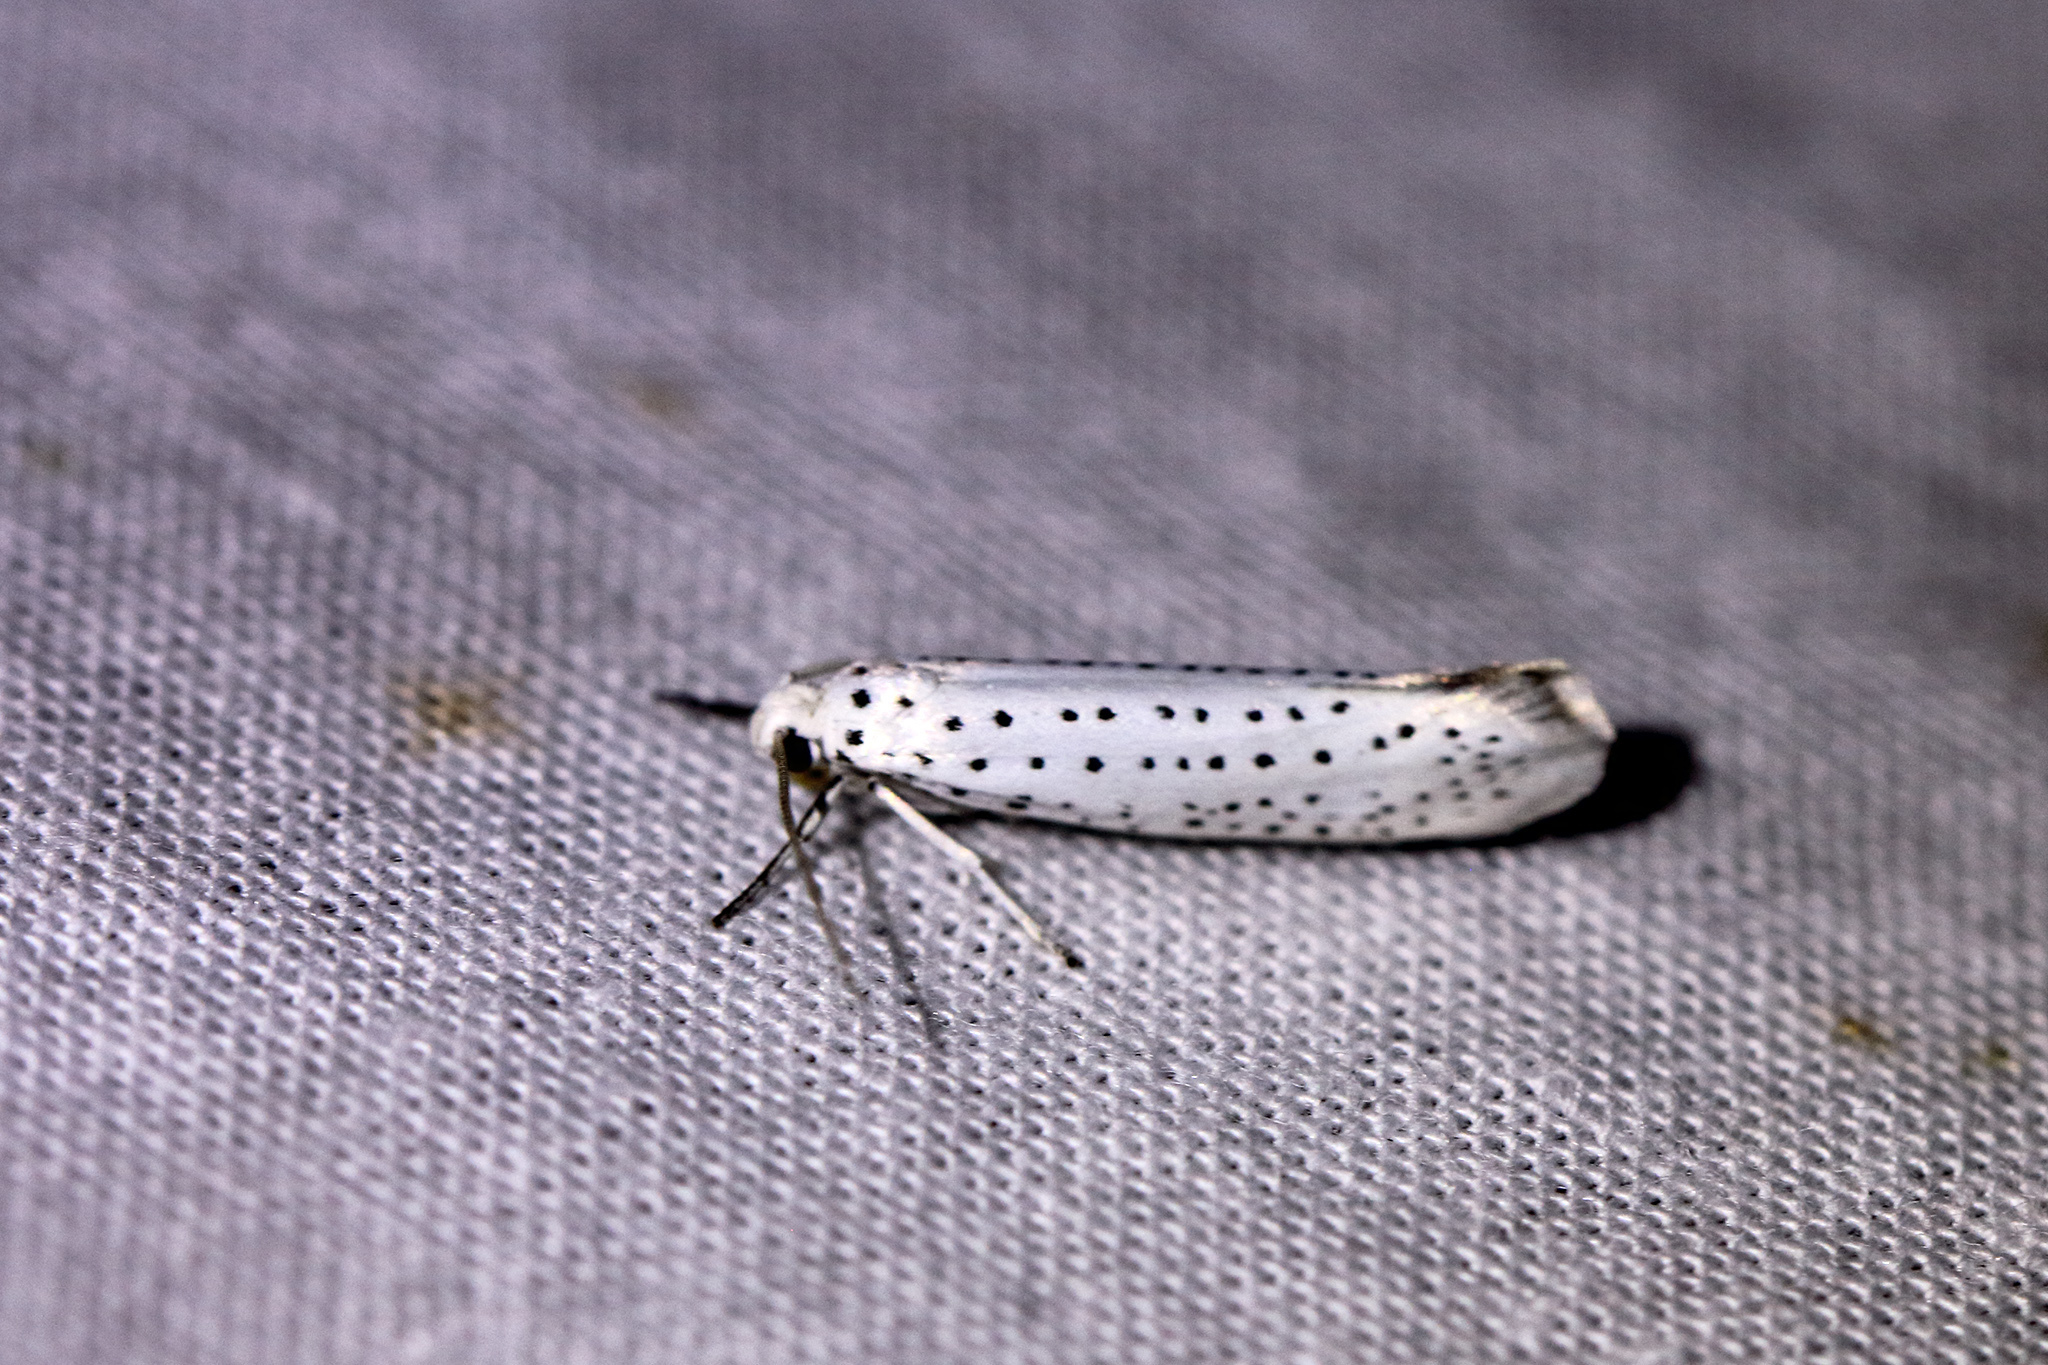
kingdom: Animalia
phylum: Arthropoda
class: Insecta
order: Lepidoptera
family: Yponomeutidae
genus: Yponomeuta
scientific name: Yponomeuta evonymella
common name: Bird-cherry ermine
